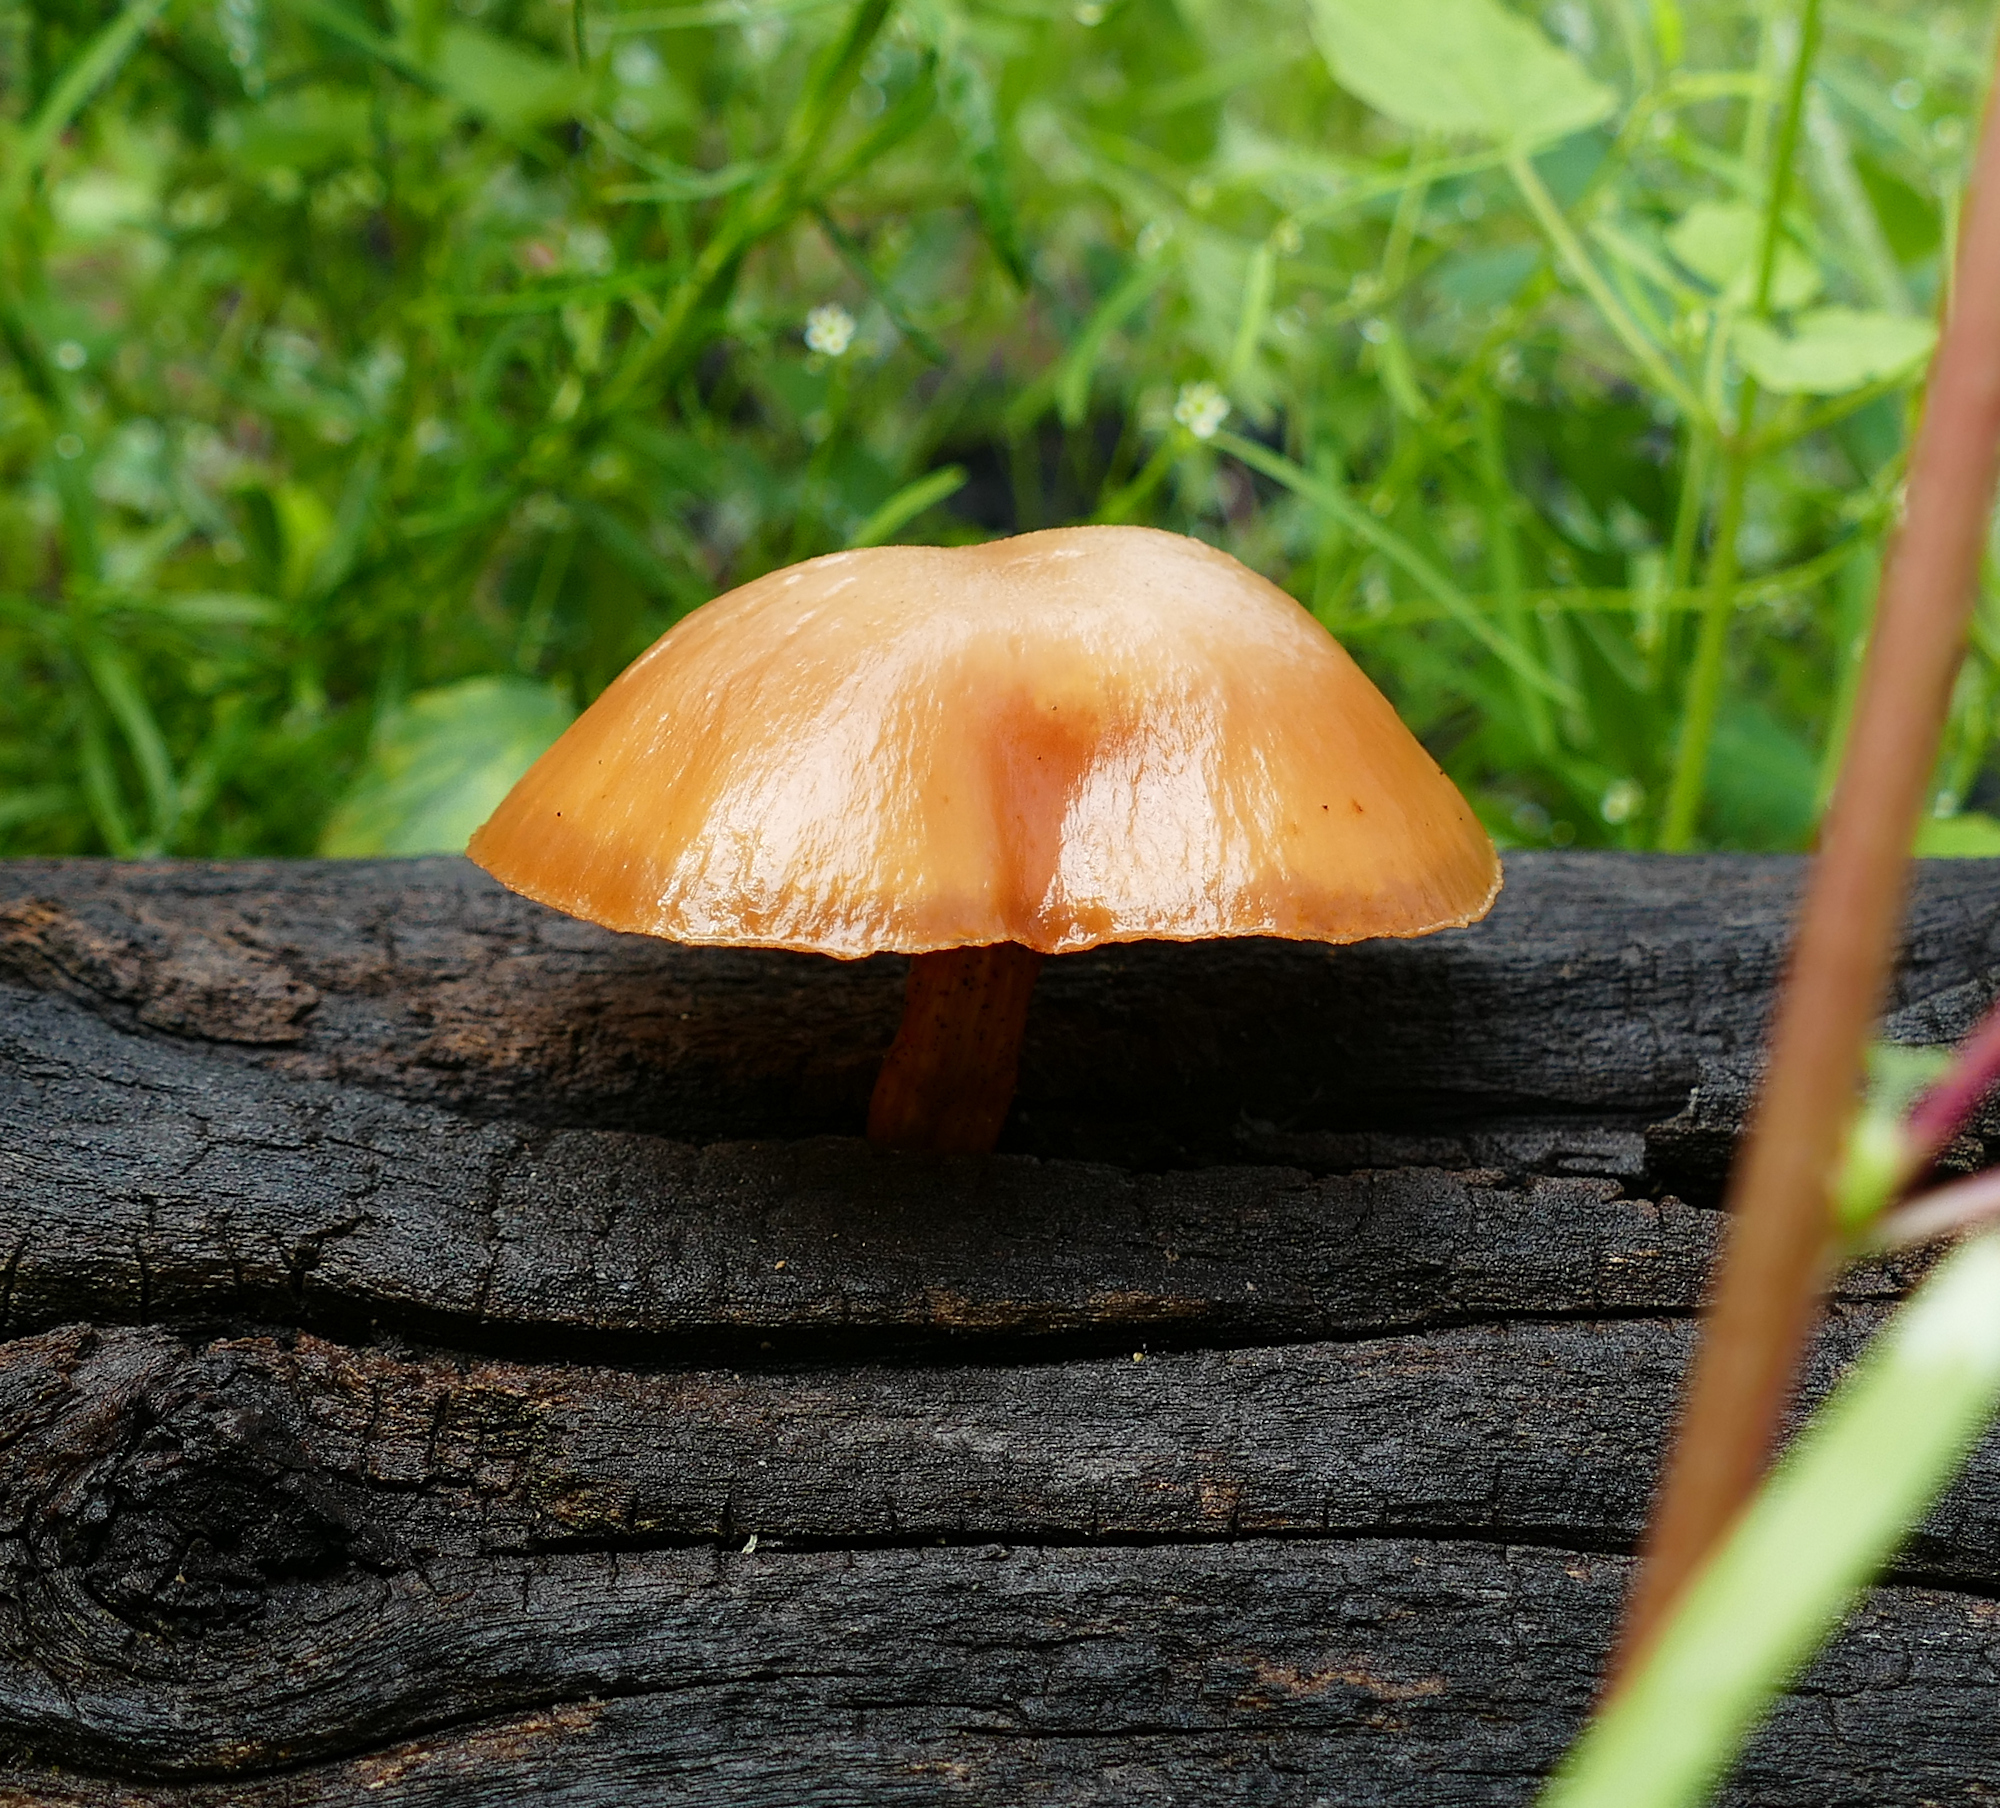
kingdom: Fungi
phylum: Basidiomycota
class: Agaricomycetes
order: Agaricales
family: Hymenogastraceae
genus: Galerina
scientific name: Galerina marginata
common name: Funeral bell
